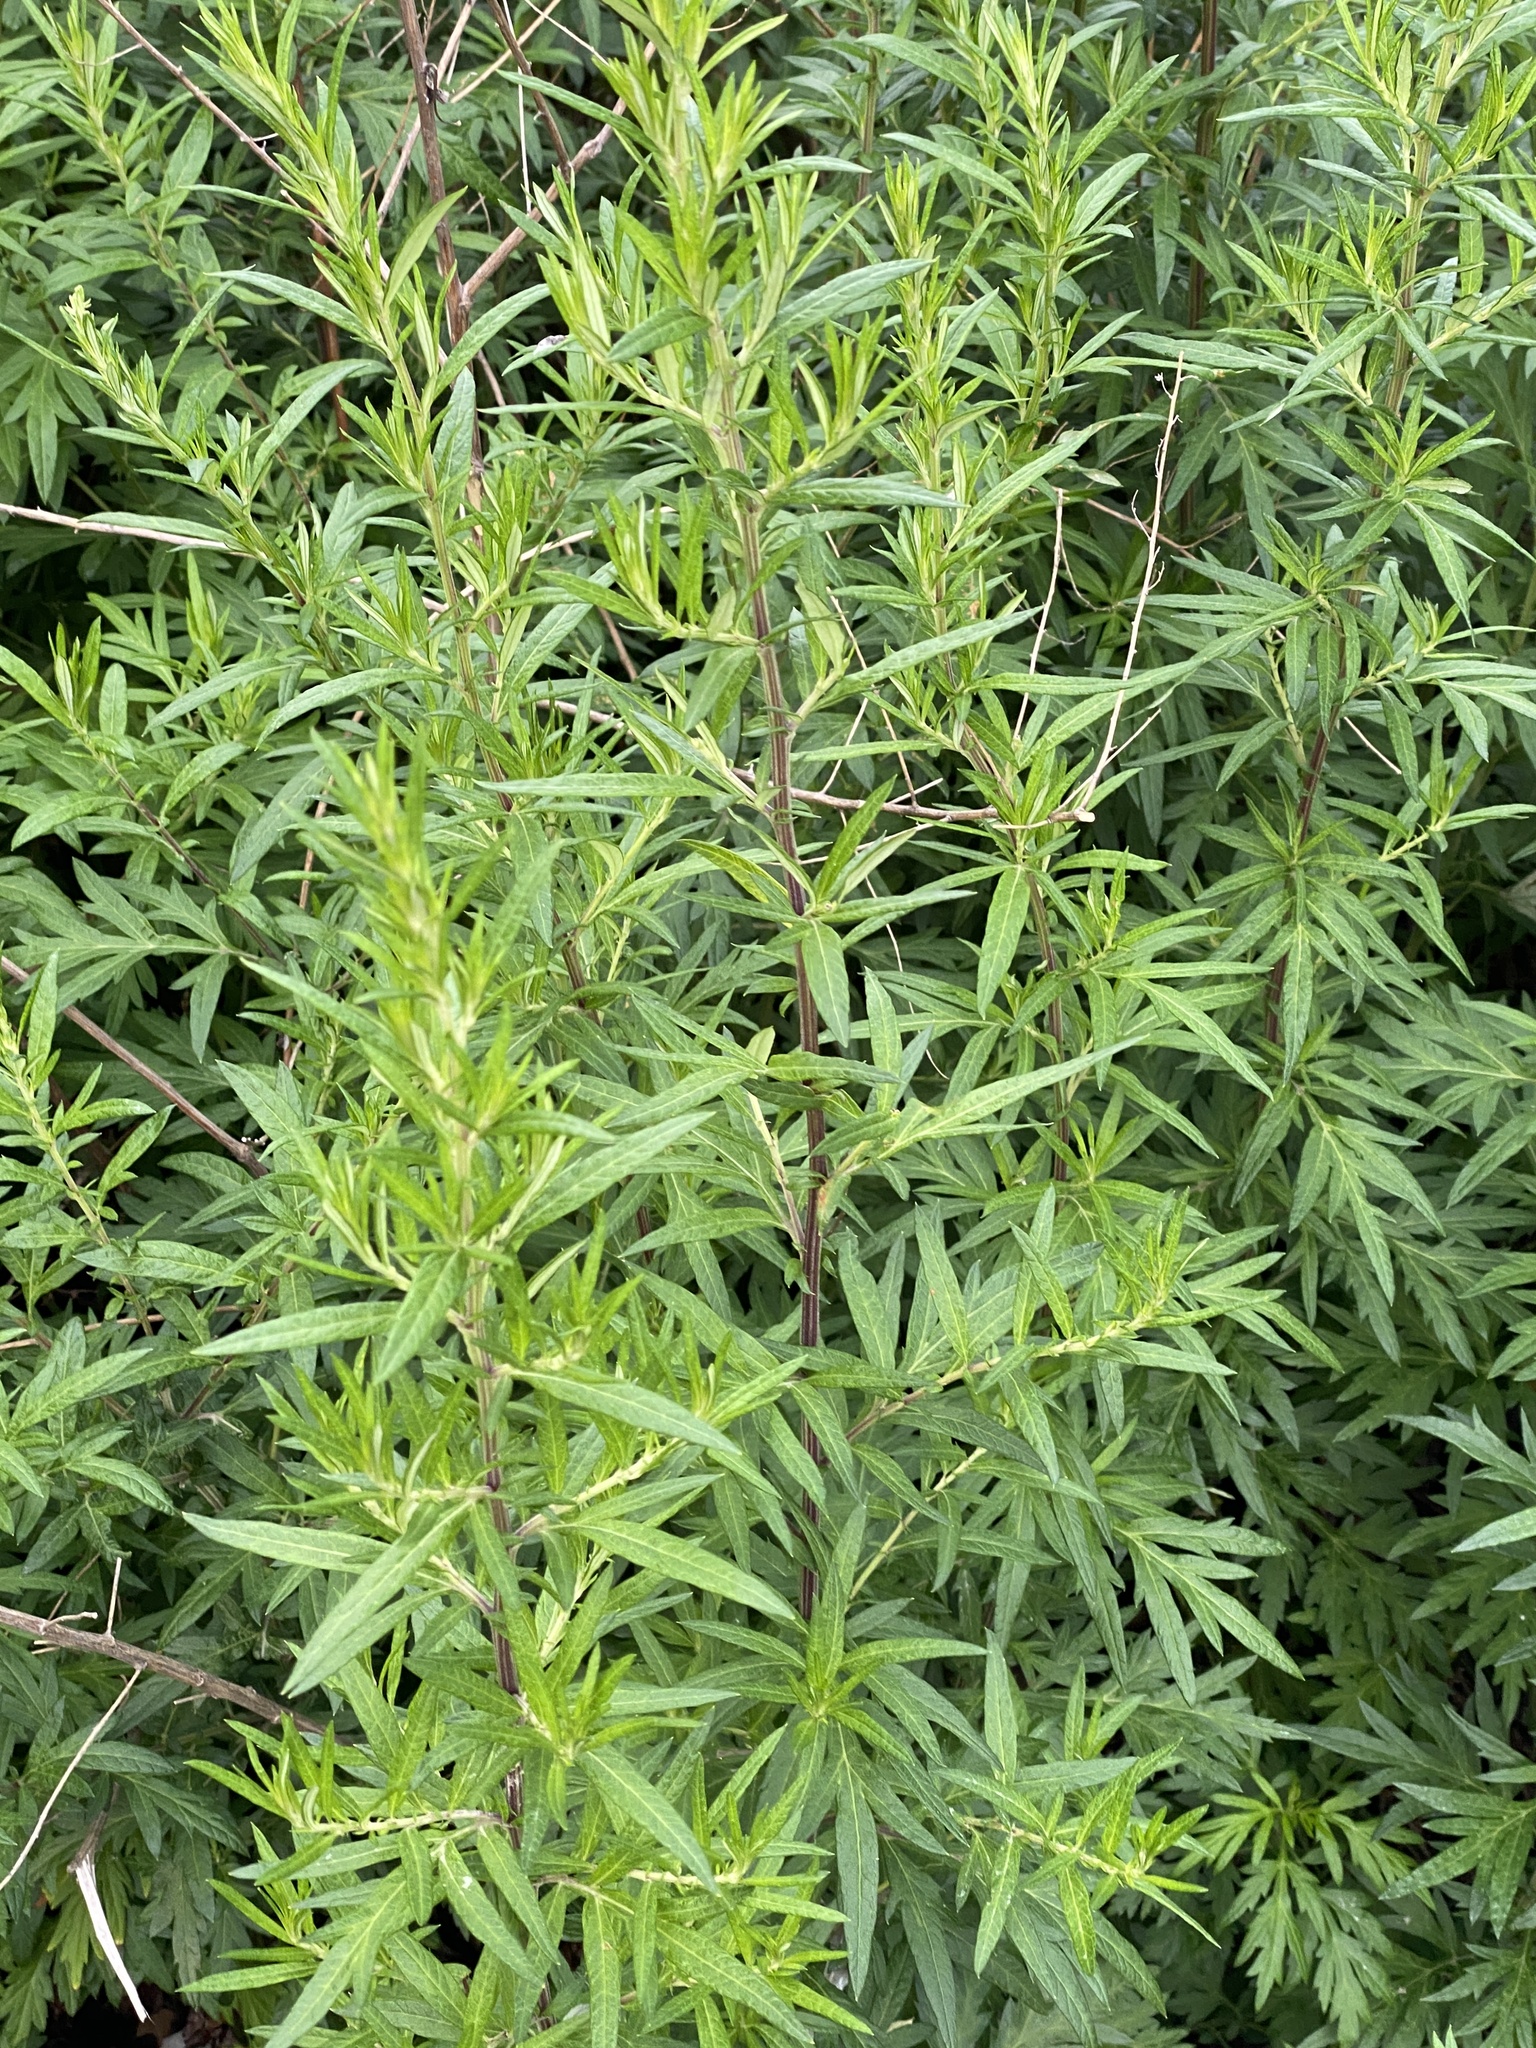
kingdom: Plantae
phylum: Tracheophyta
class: Magnoliopsida
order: Asterales
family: Asteraceae
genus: Artemisia
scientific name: Artemisia vulgaris
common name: Mugwort
